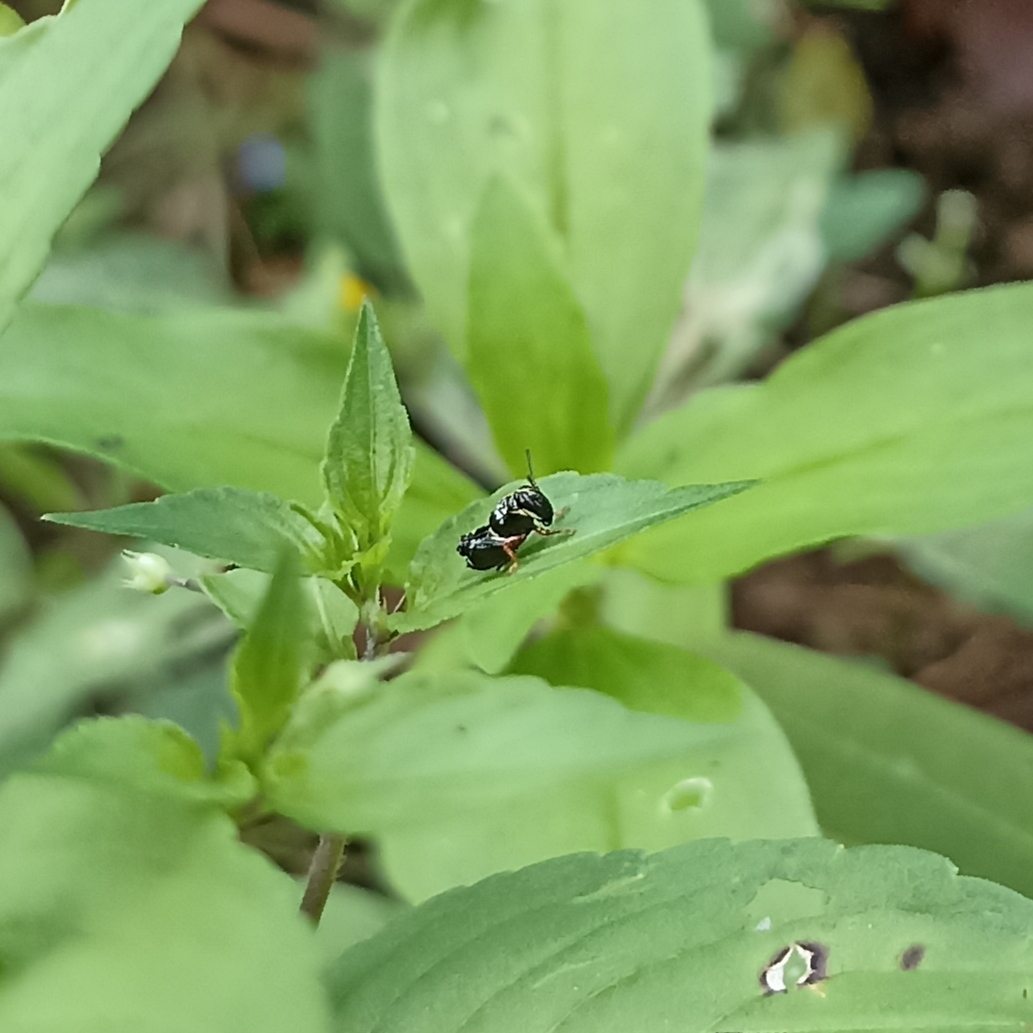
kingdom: Animalia
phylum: Arthropoda
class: Insecta
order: Orthoptera
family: Acrididae
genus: Aidemona
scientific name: Aidemona azteca
